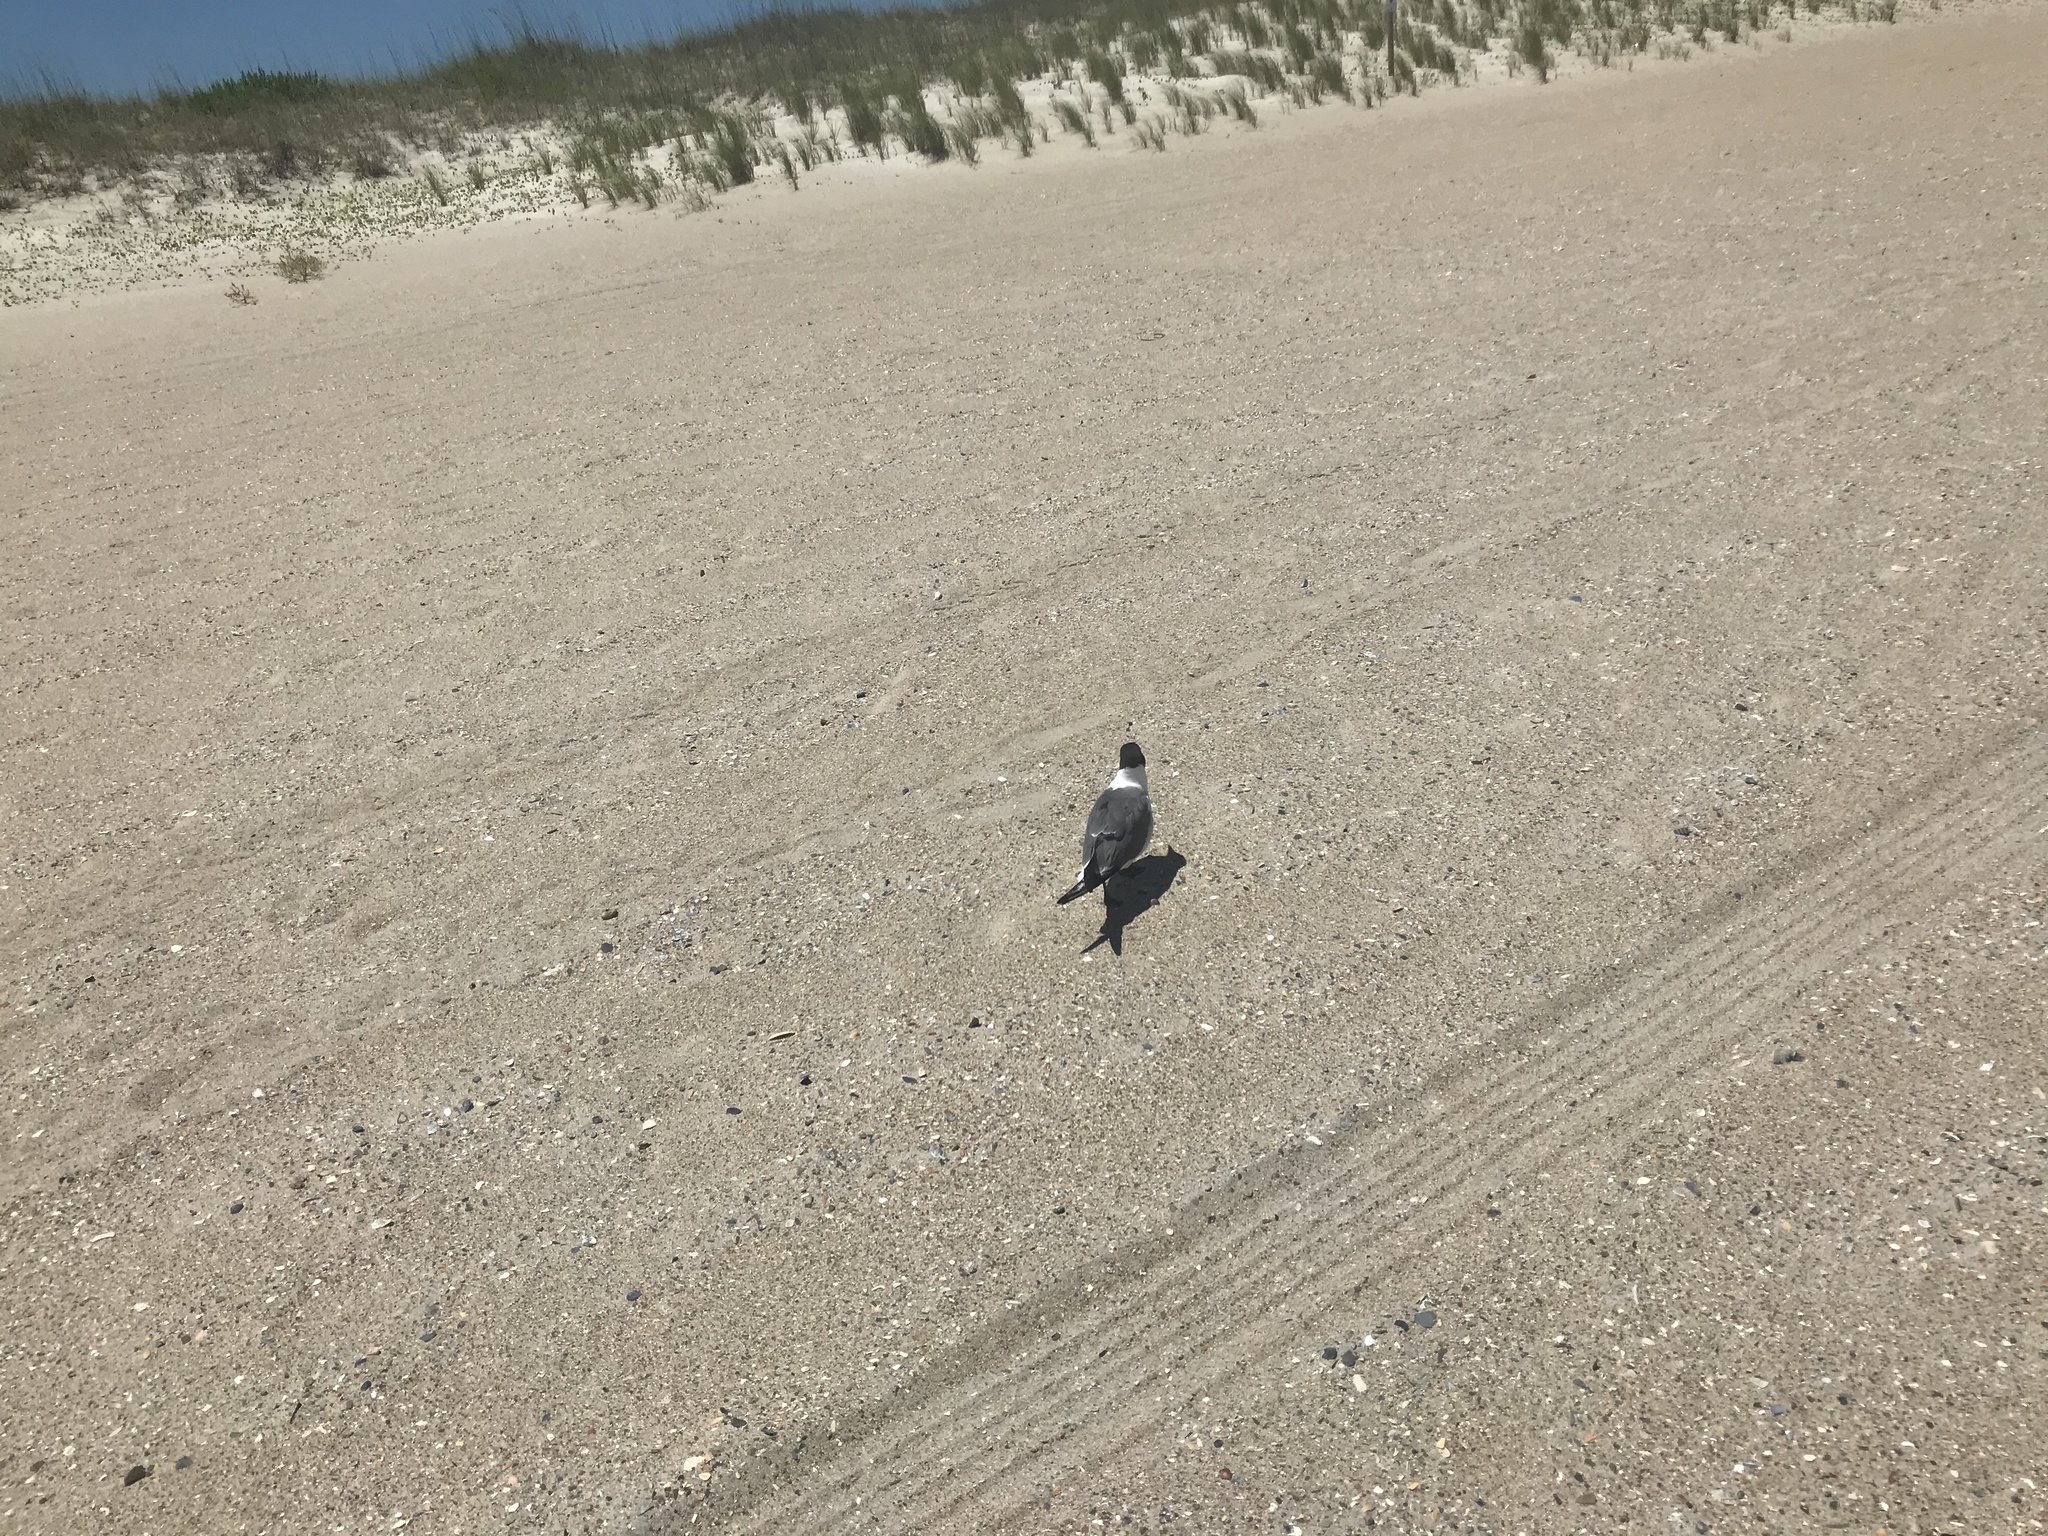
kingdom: Animalia
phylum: Chordata
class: Aves
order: Charadriiformes
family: Laridae
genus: Leucophaeus
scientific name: Leucophaeus atricilla
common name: Laughing gull
